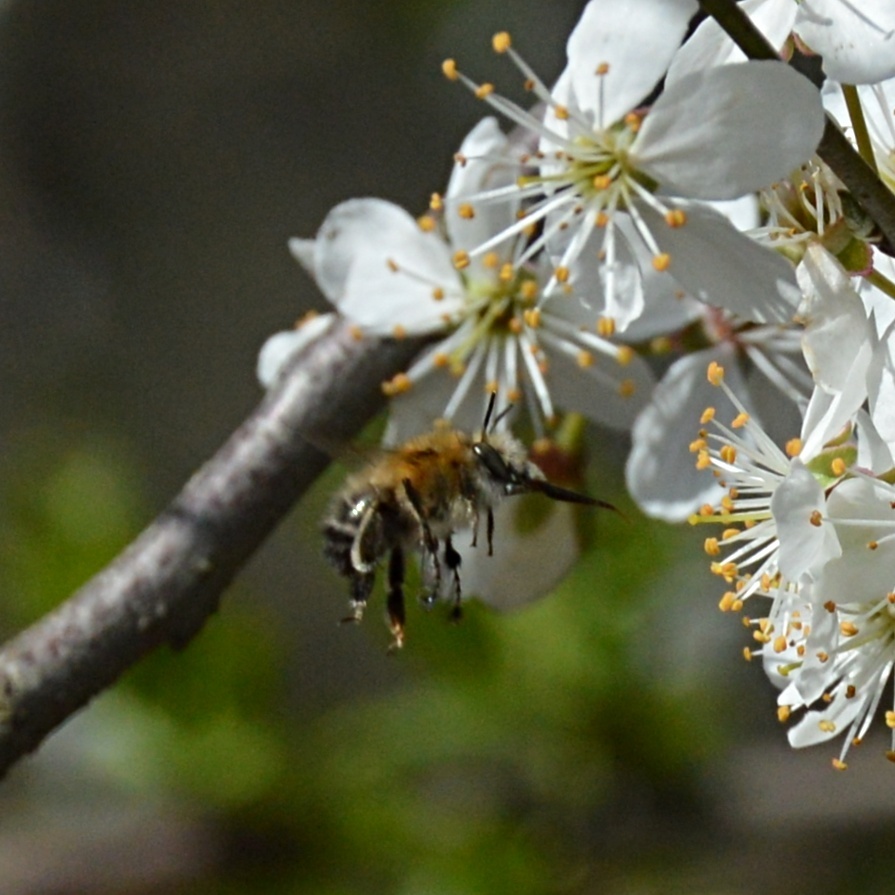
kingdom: Animalia
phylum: Arthropoda
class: Insecta
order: Hymenoptera
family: Apidae
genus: Anthophora
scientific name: Anthophora plumipes
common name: Hairy-footed flower bee
